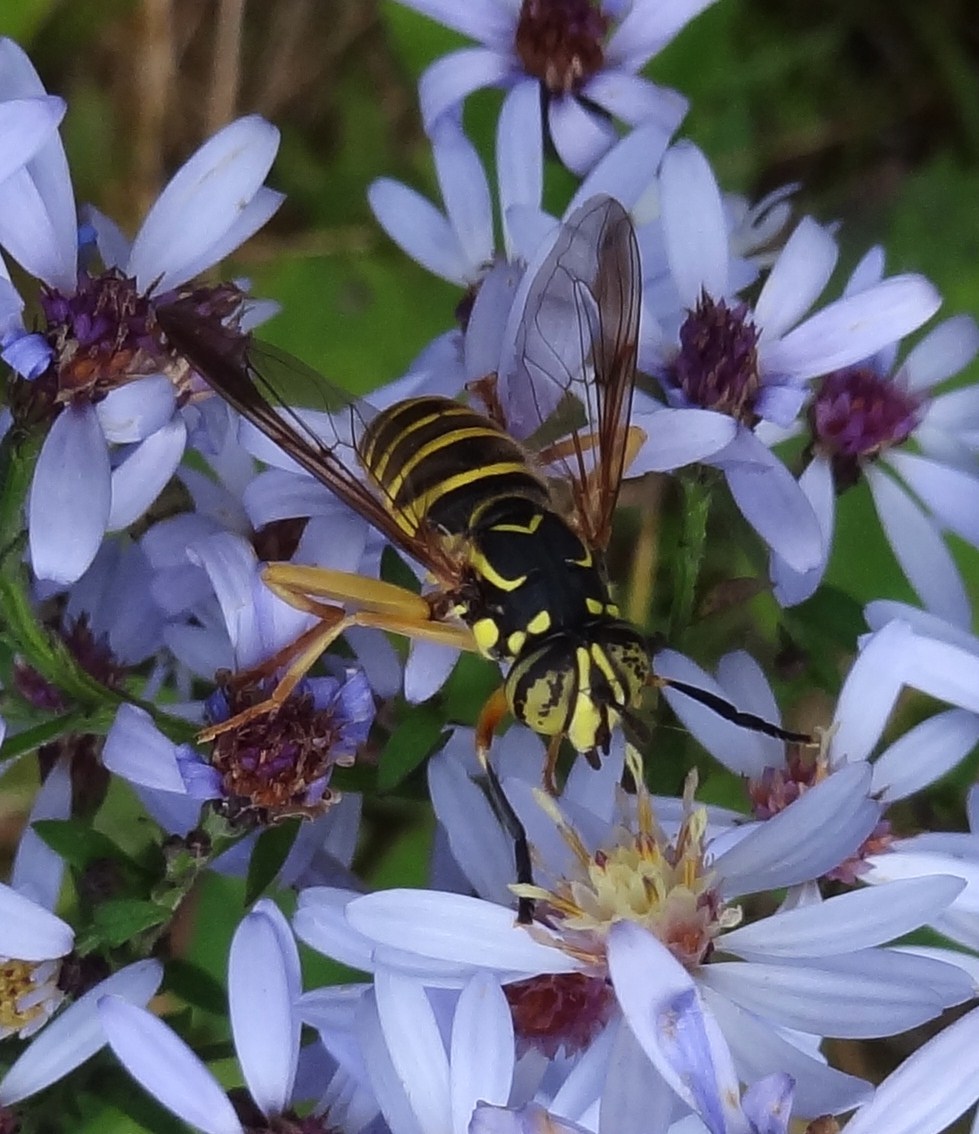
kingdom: Animalia
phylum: Arthropoda
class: Insecta
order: Diptera
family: Syrphidae
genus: Spilomyia
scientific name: Spilomyia longicornis
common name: Eastern hornet fly
